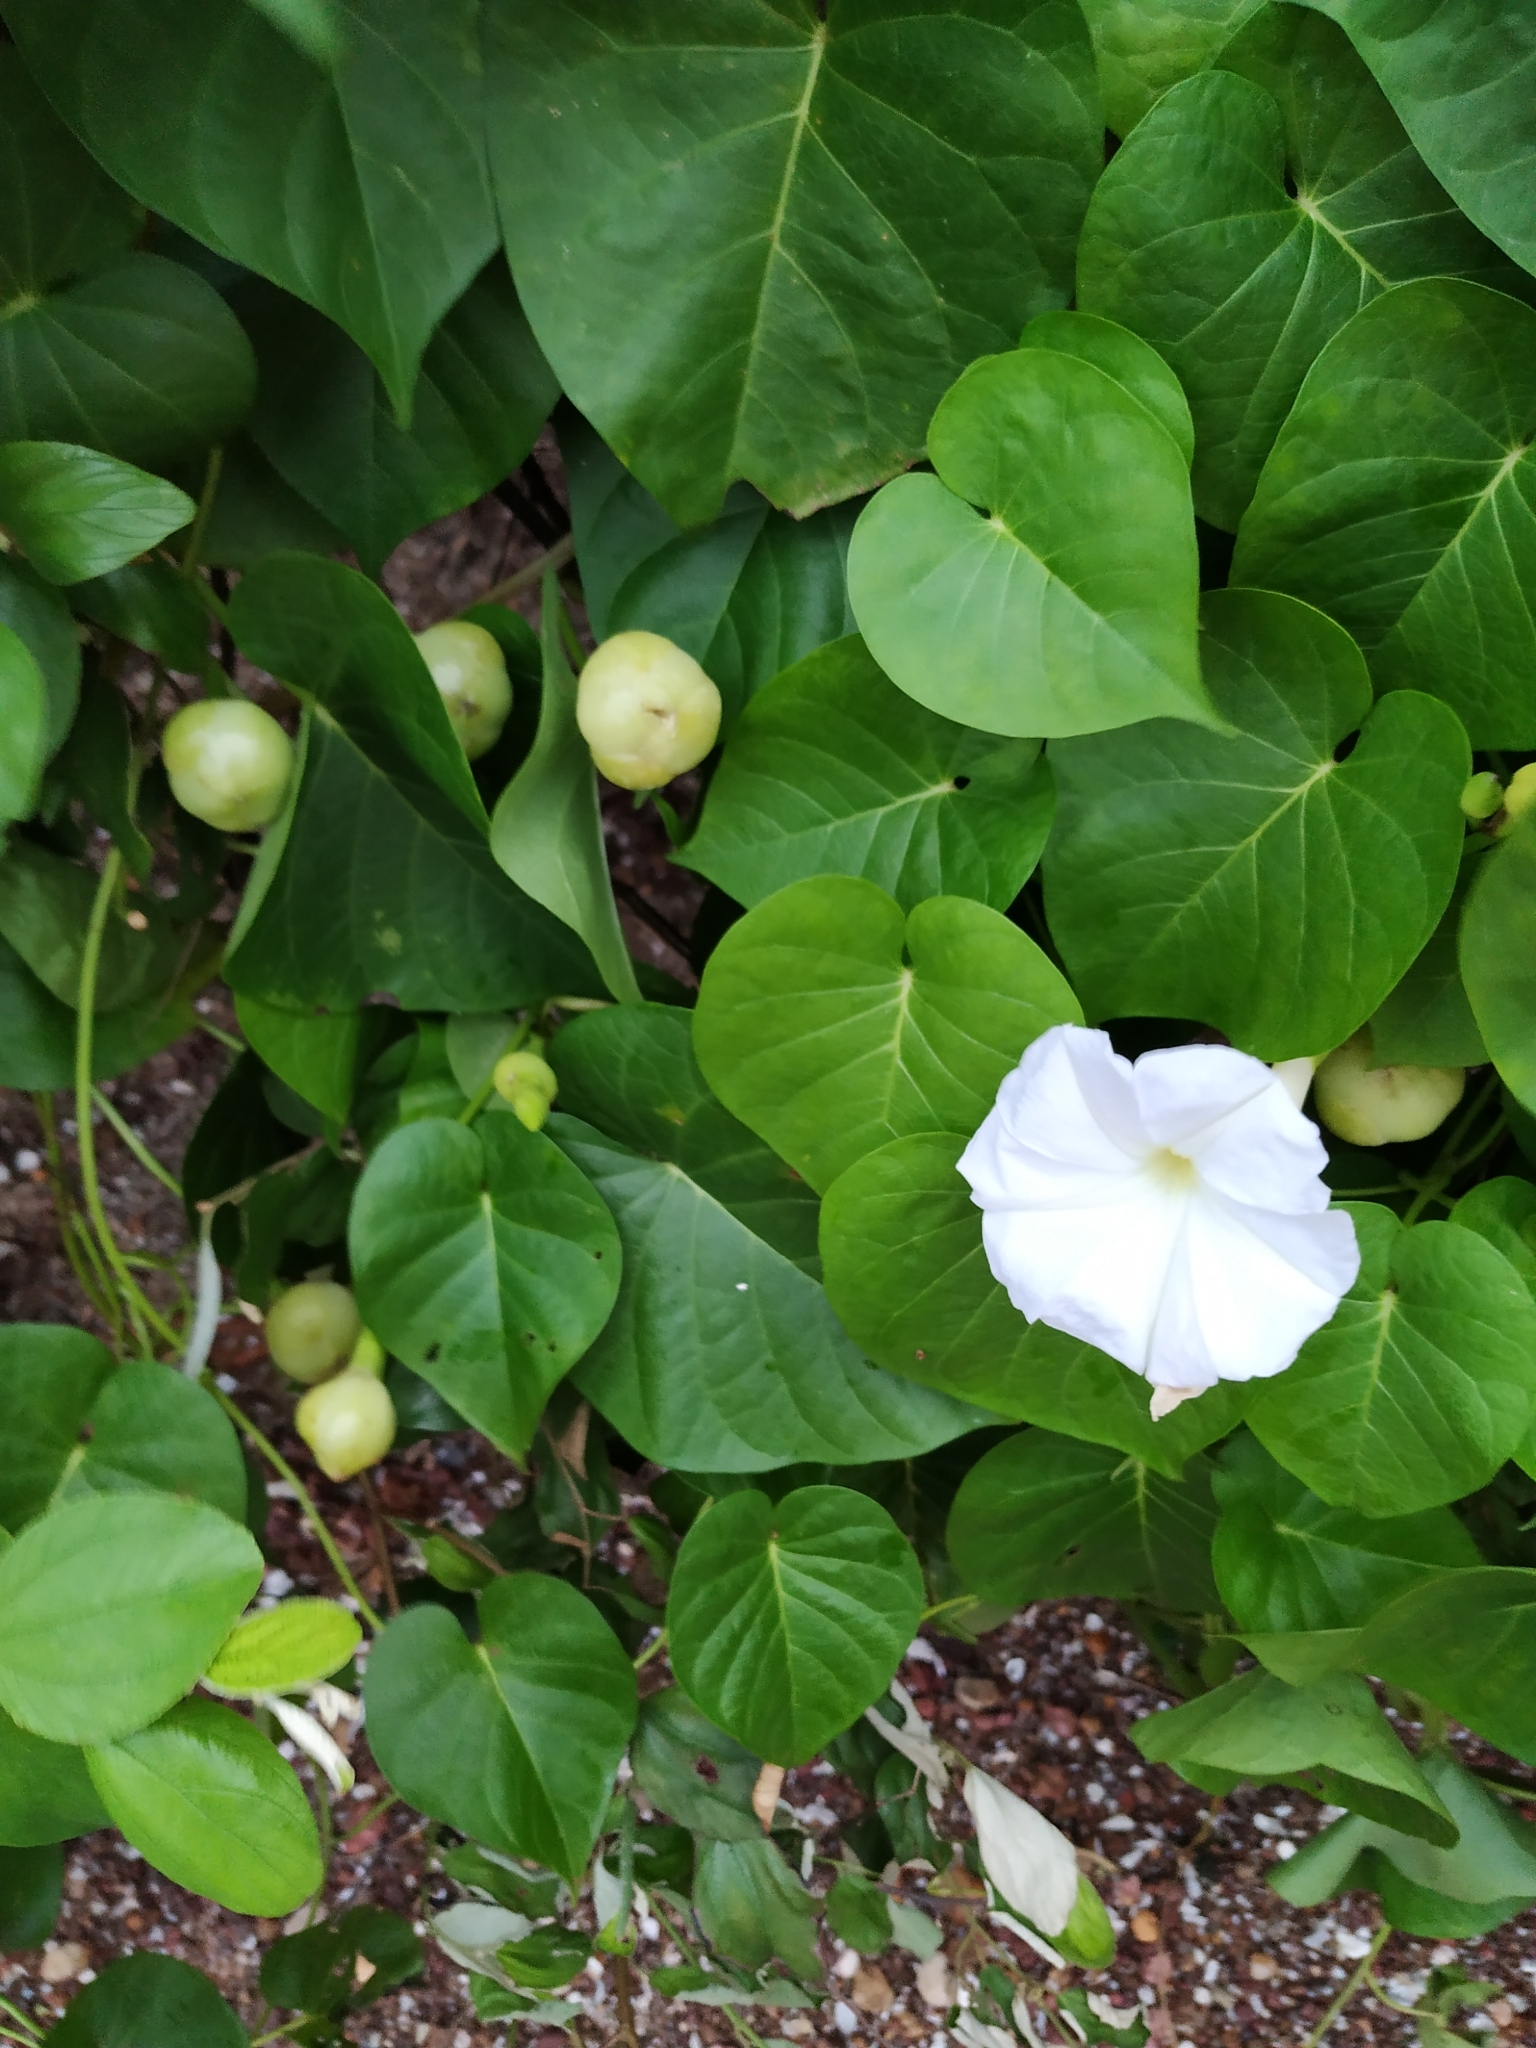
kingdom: Plantae
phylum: Tracheophyta
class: Magnoliopsida
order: Solanales
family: Convolvulaceae
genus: Ipomoea
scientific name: Ipomoea violacea
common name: Beach moonflower
